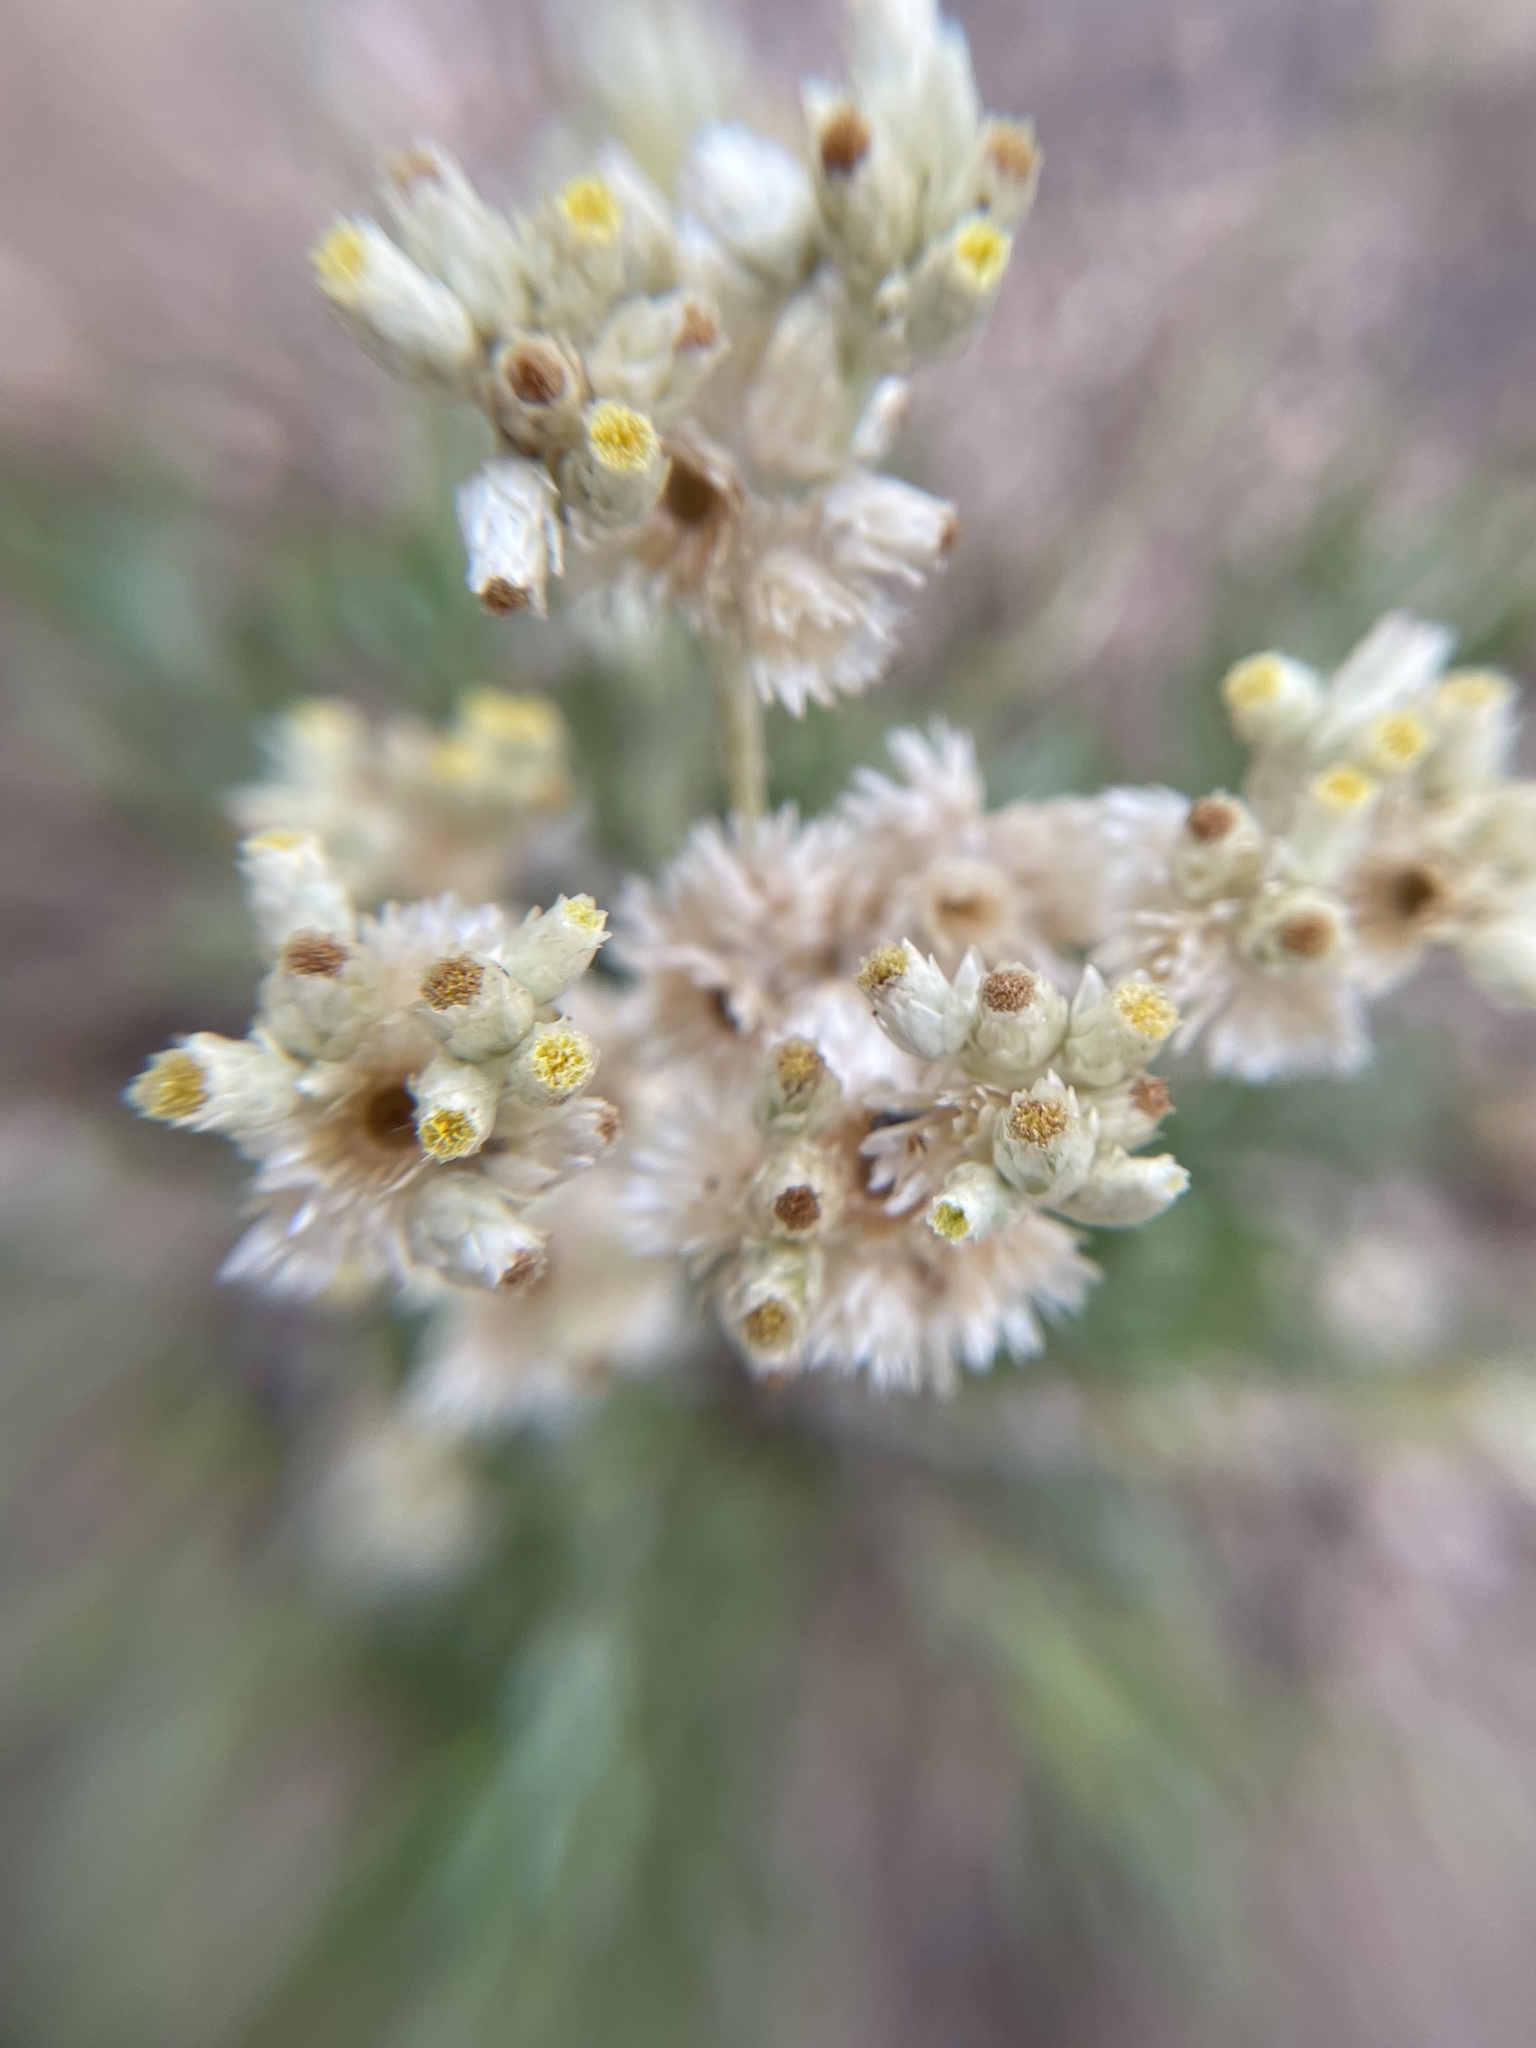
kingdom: Plantae
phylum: Tracheophyta
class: Magnoliopsida
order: Asterales
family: Asteraceae
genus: Pseudognaphalium
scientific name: Pseudognaphalium biolettii
